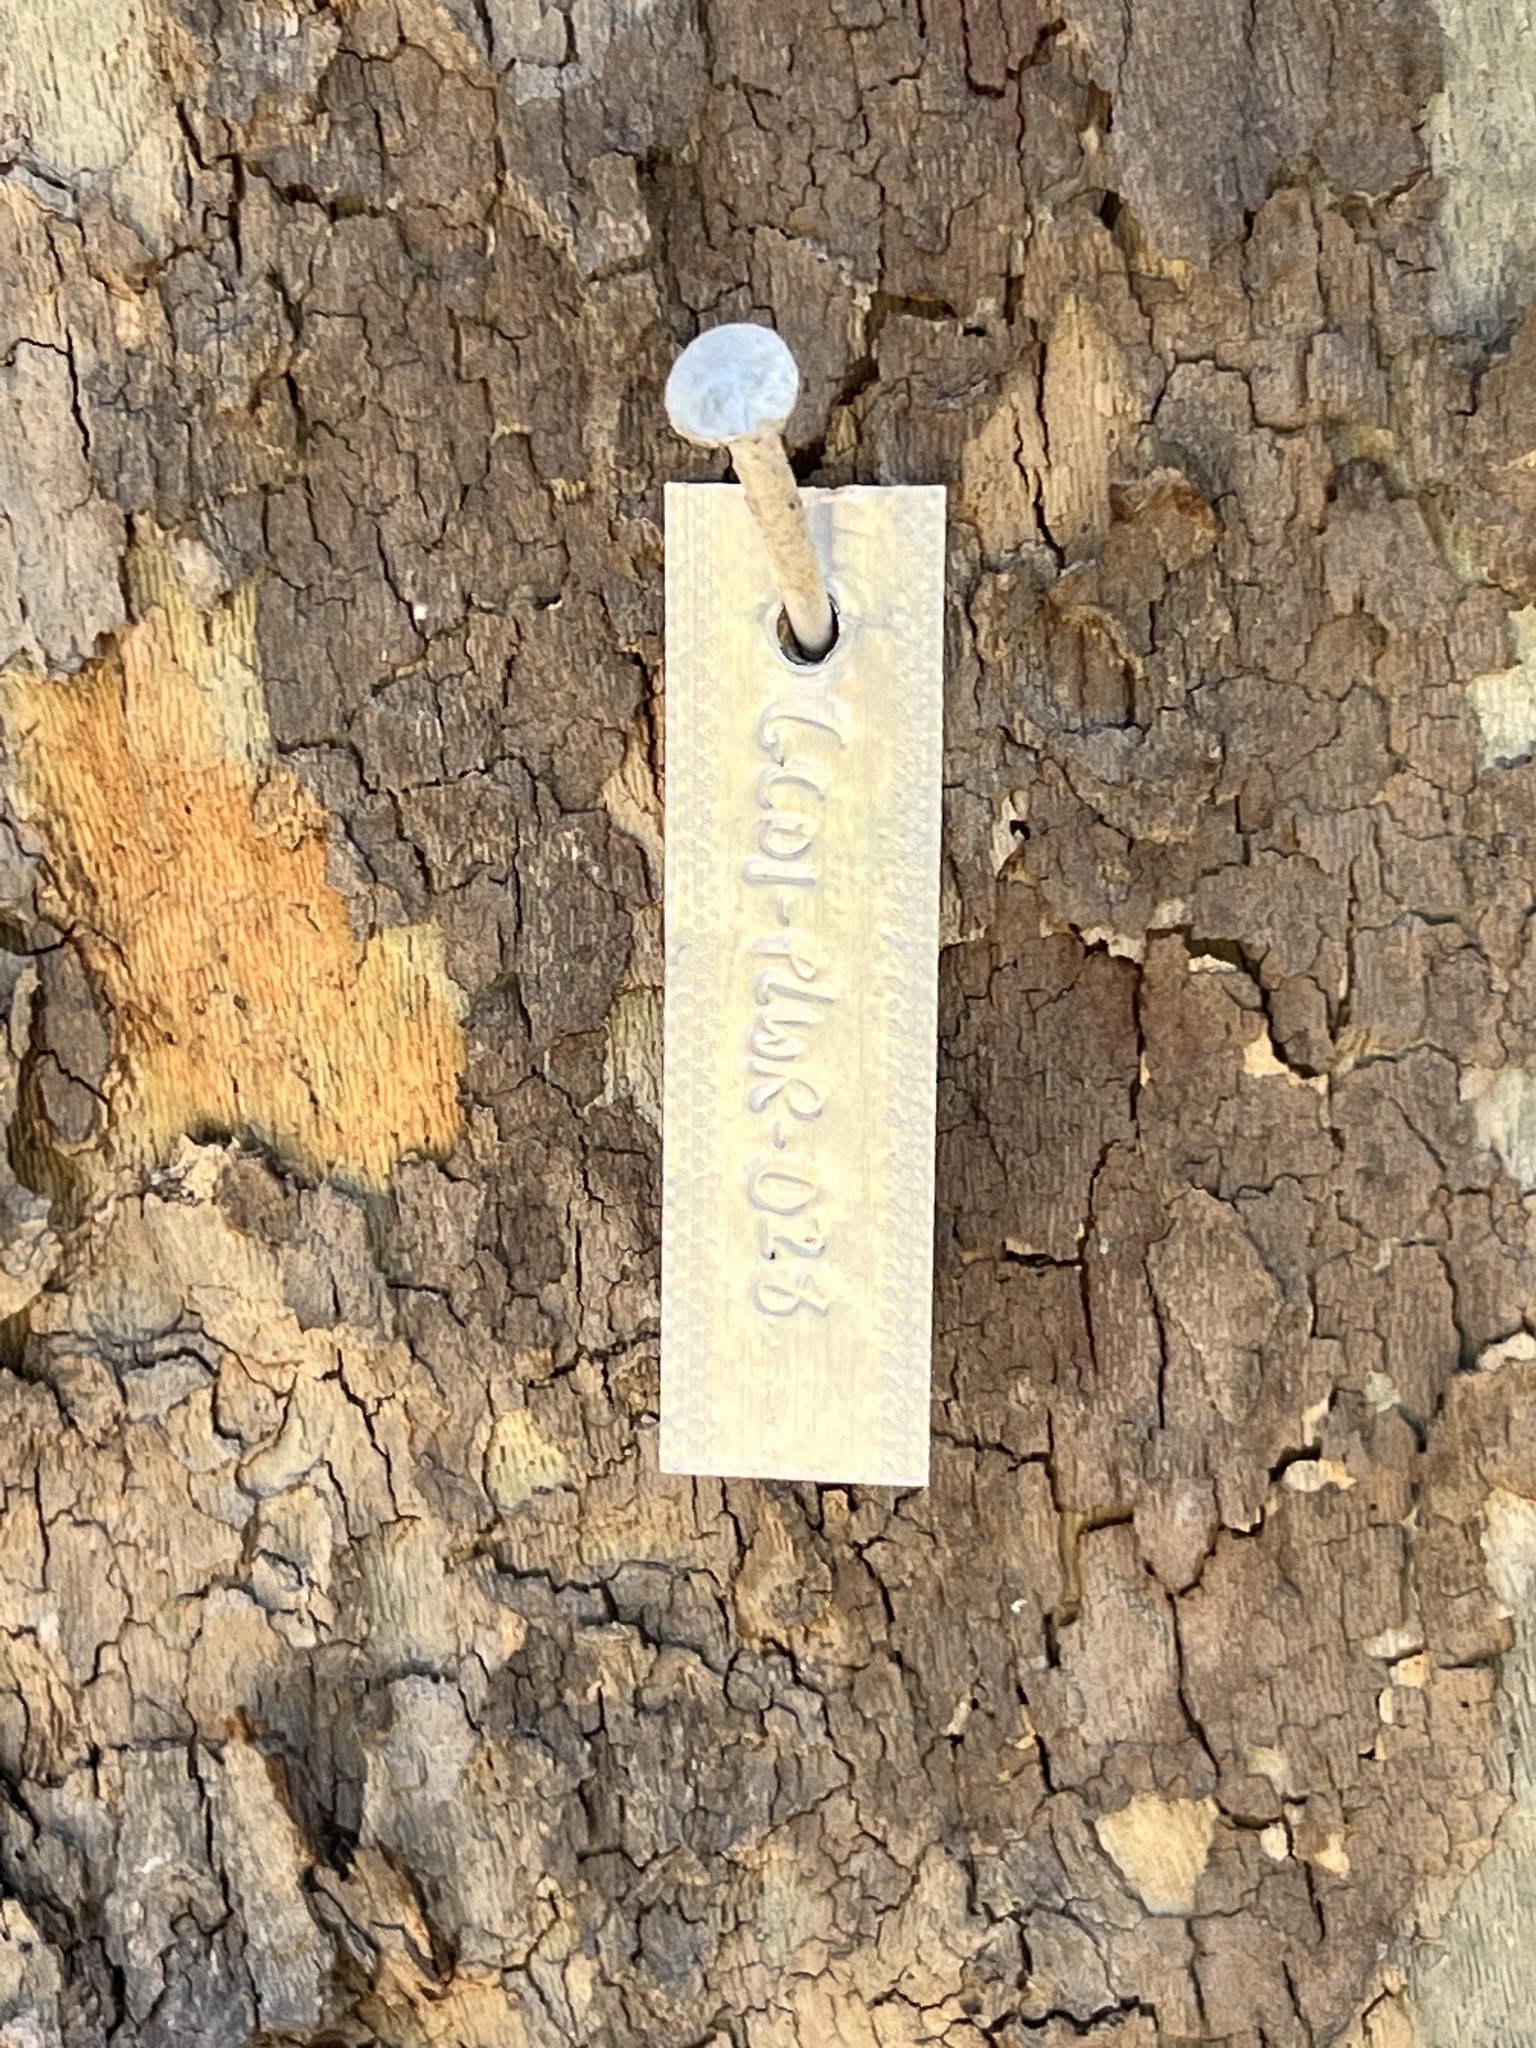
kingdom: Plantae
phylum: Tracheophyta
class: Magnoliopsida
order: Proteales
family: Platanaceae
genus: Platanus
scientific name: Platanus wrightii
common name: Arizona sycamore
